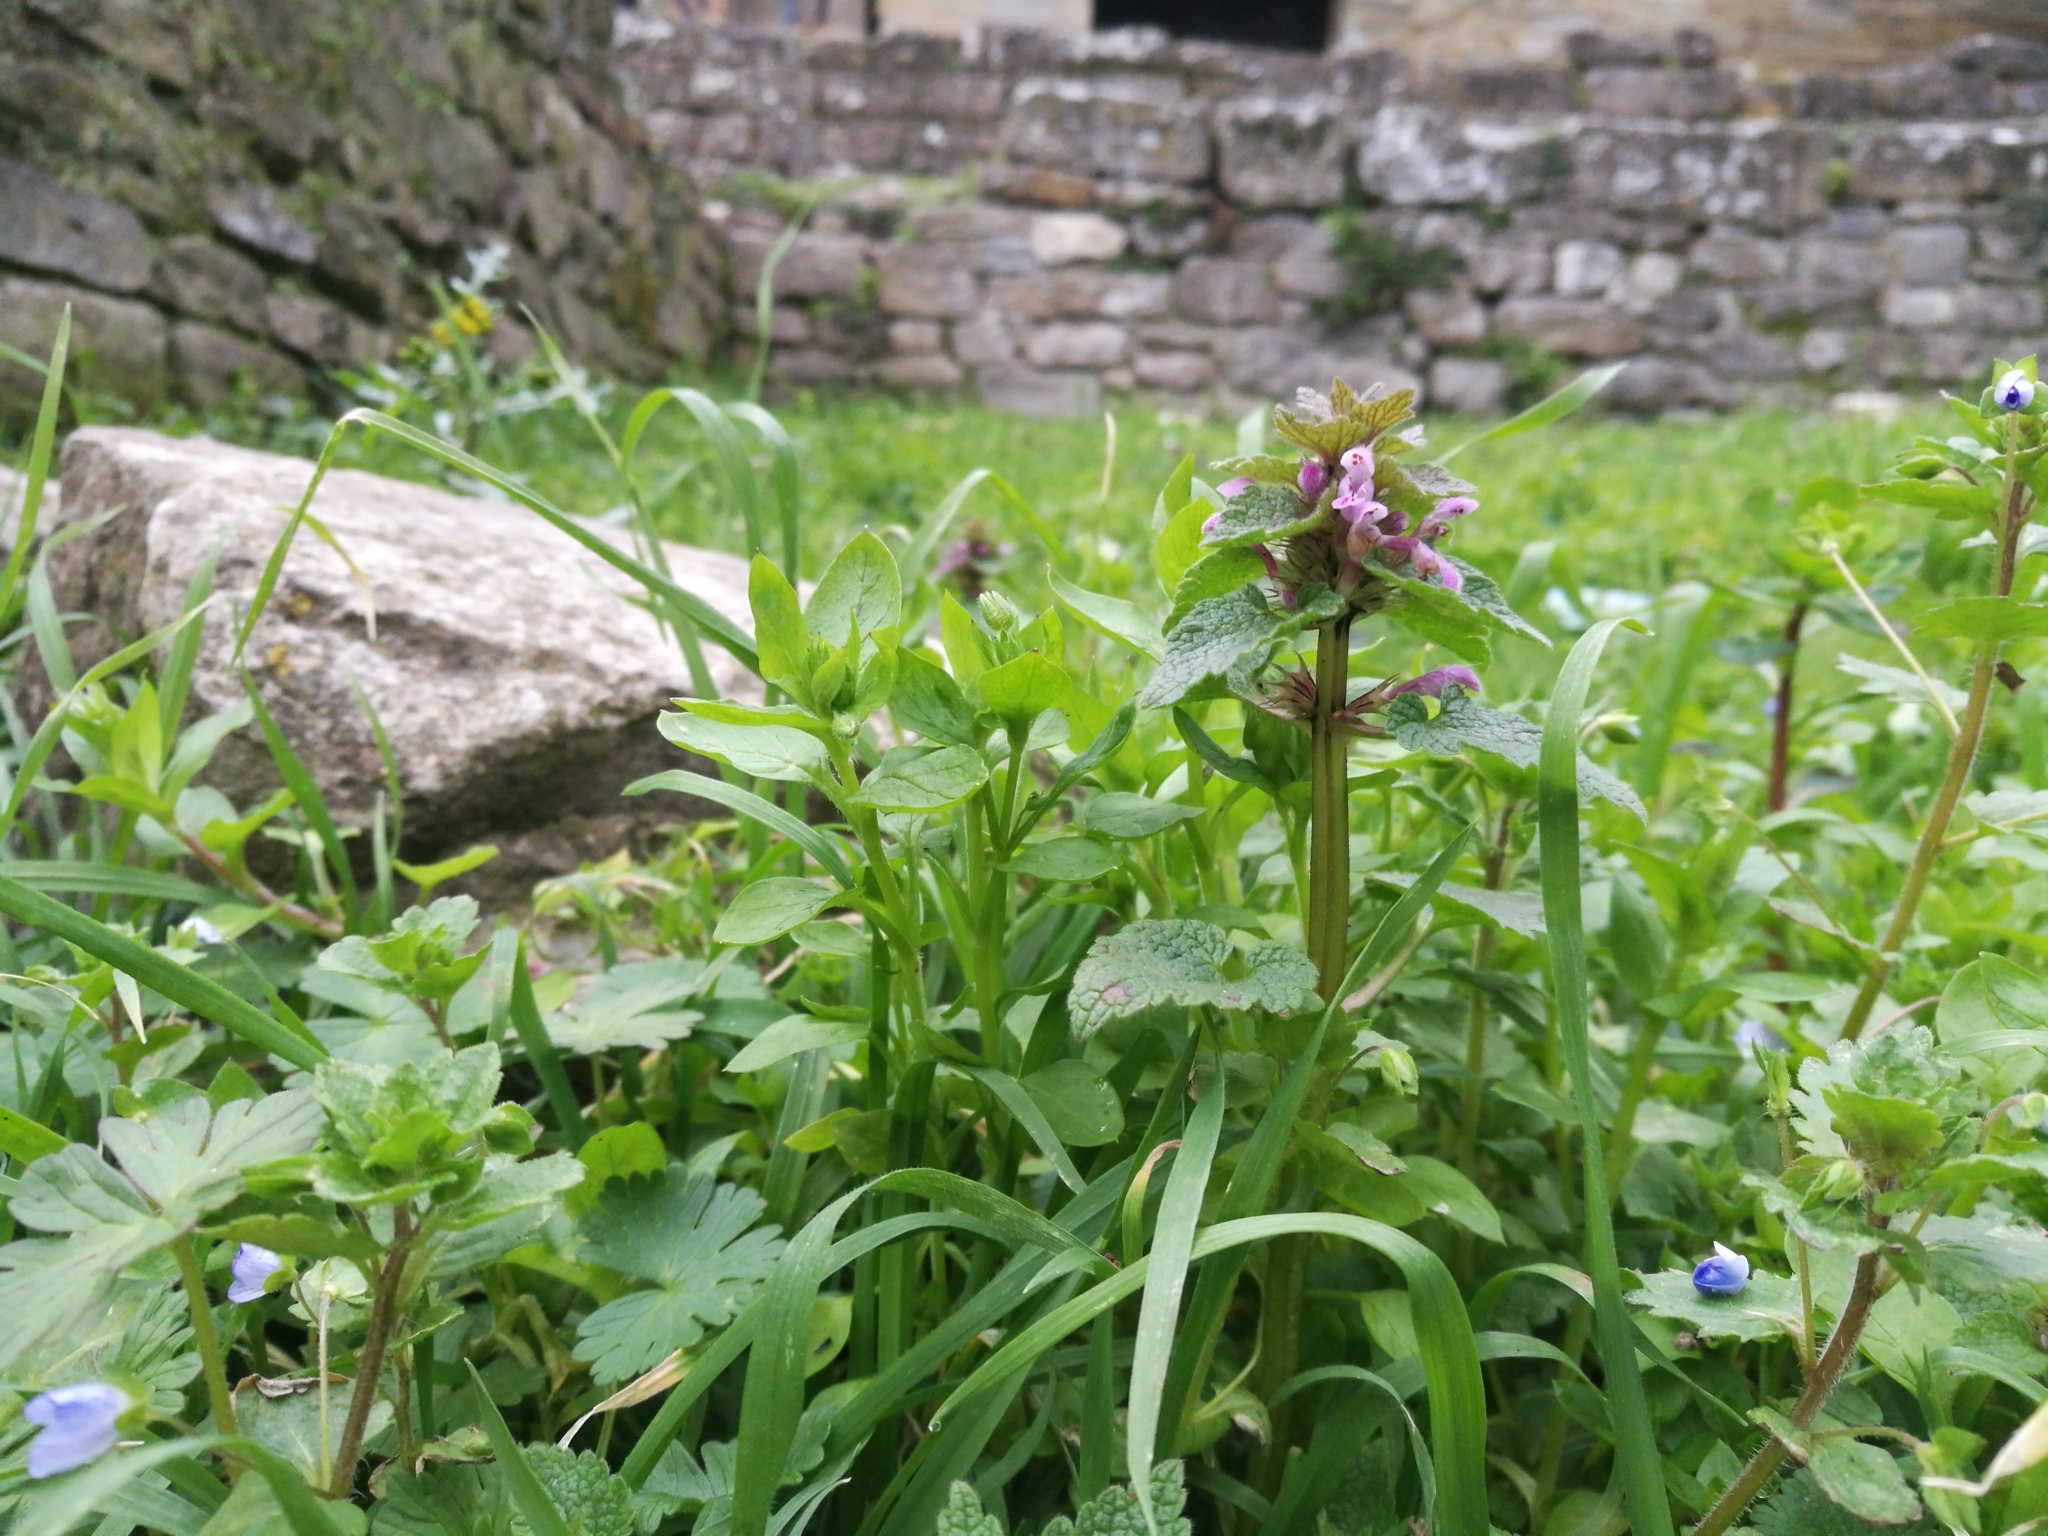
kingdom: Plantae
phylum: Tracheophyta
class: Magnoliopsida
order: Lamiales
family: Lamiaceae
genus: Lamium
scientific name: Lamium purpureum
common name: Red dead-nettle
